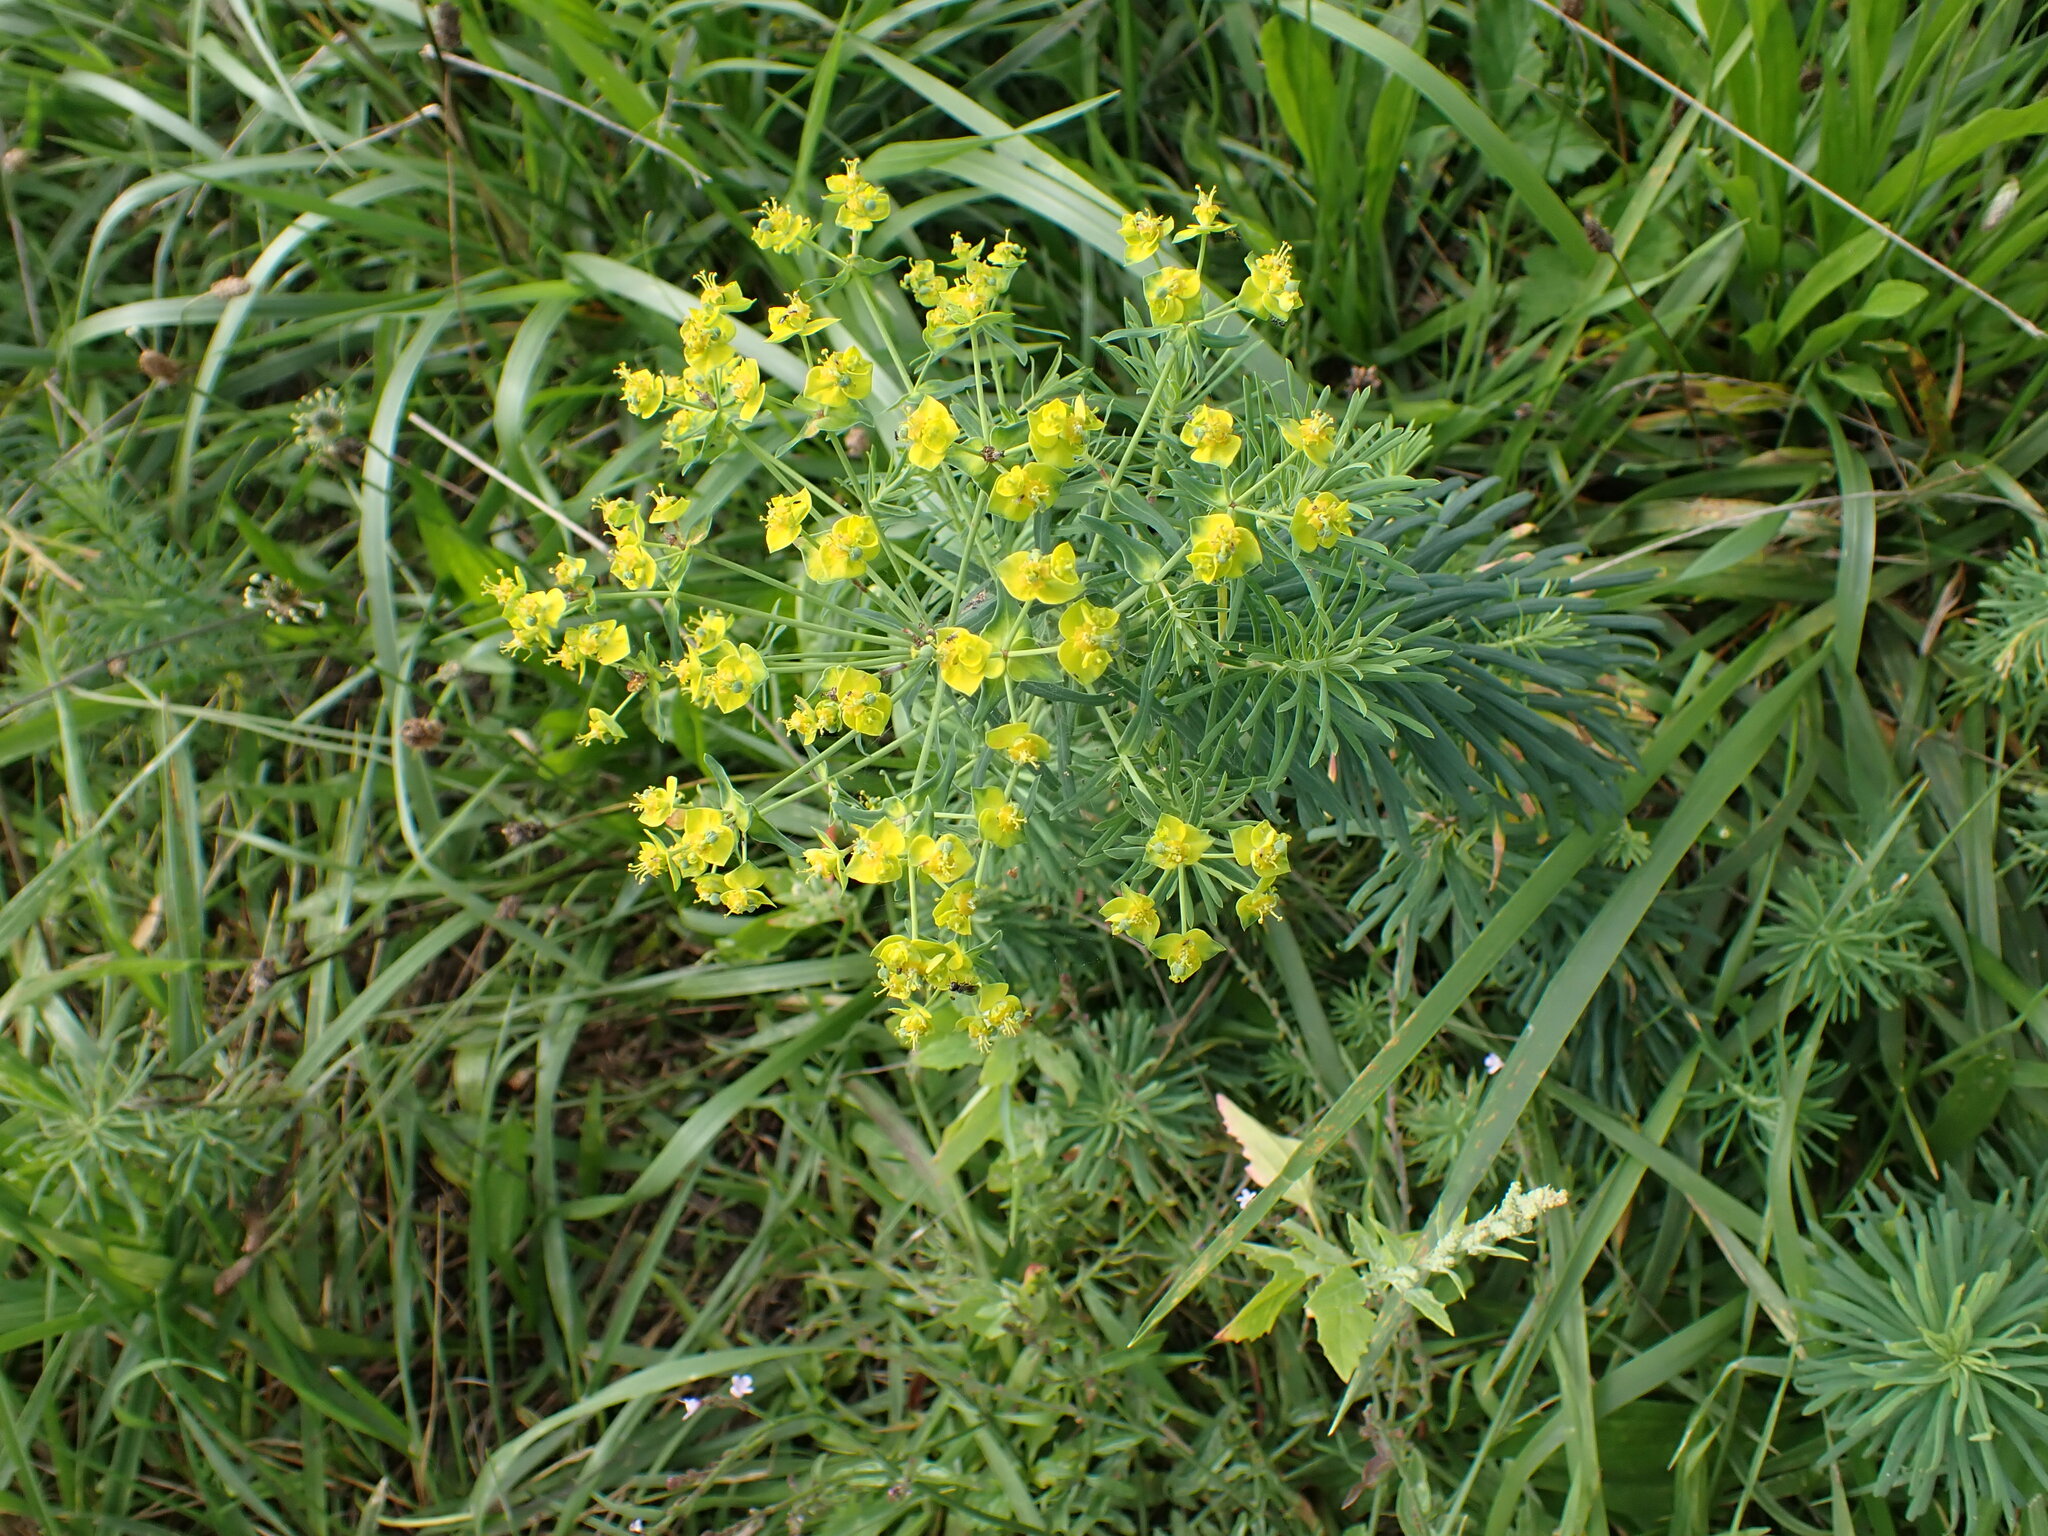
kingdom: Plantae
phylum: Tracheophyta
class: Magnoliopsida
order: Malpighiales
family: Euphorbiaceae
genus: Euphorbia
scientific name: Euphorbia cyparissias
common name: Cypress spurge
